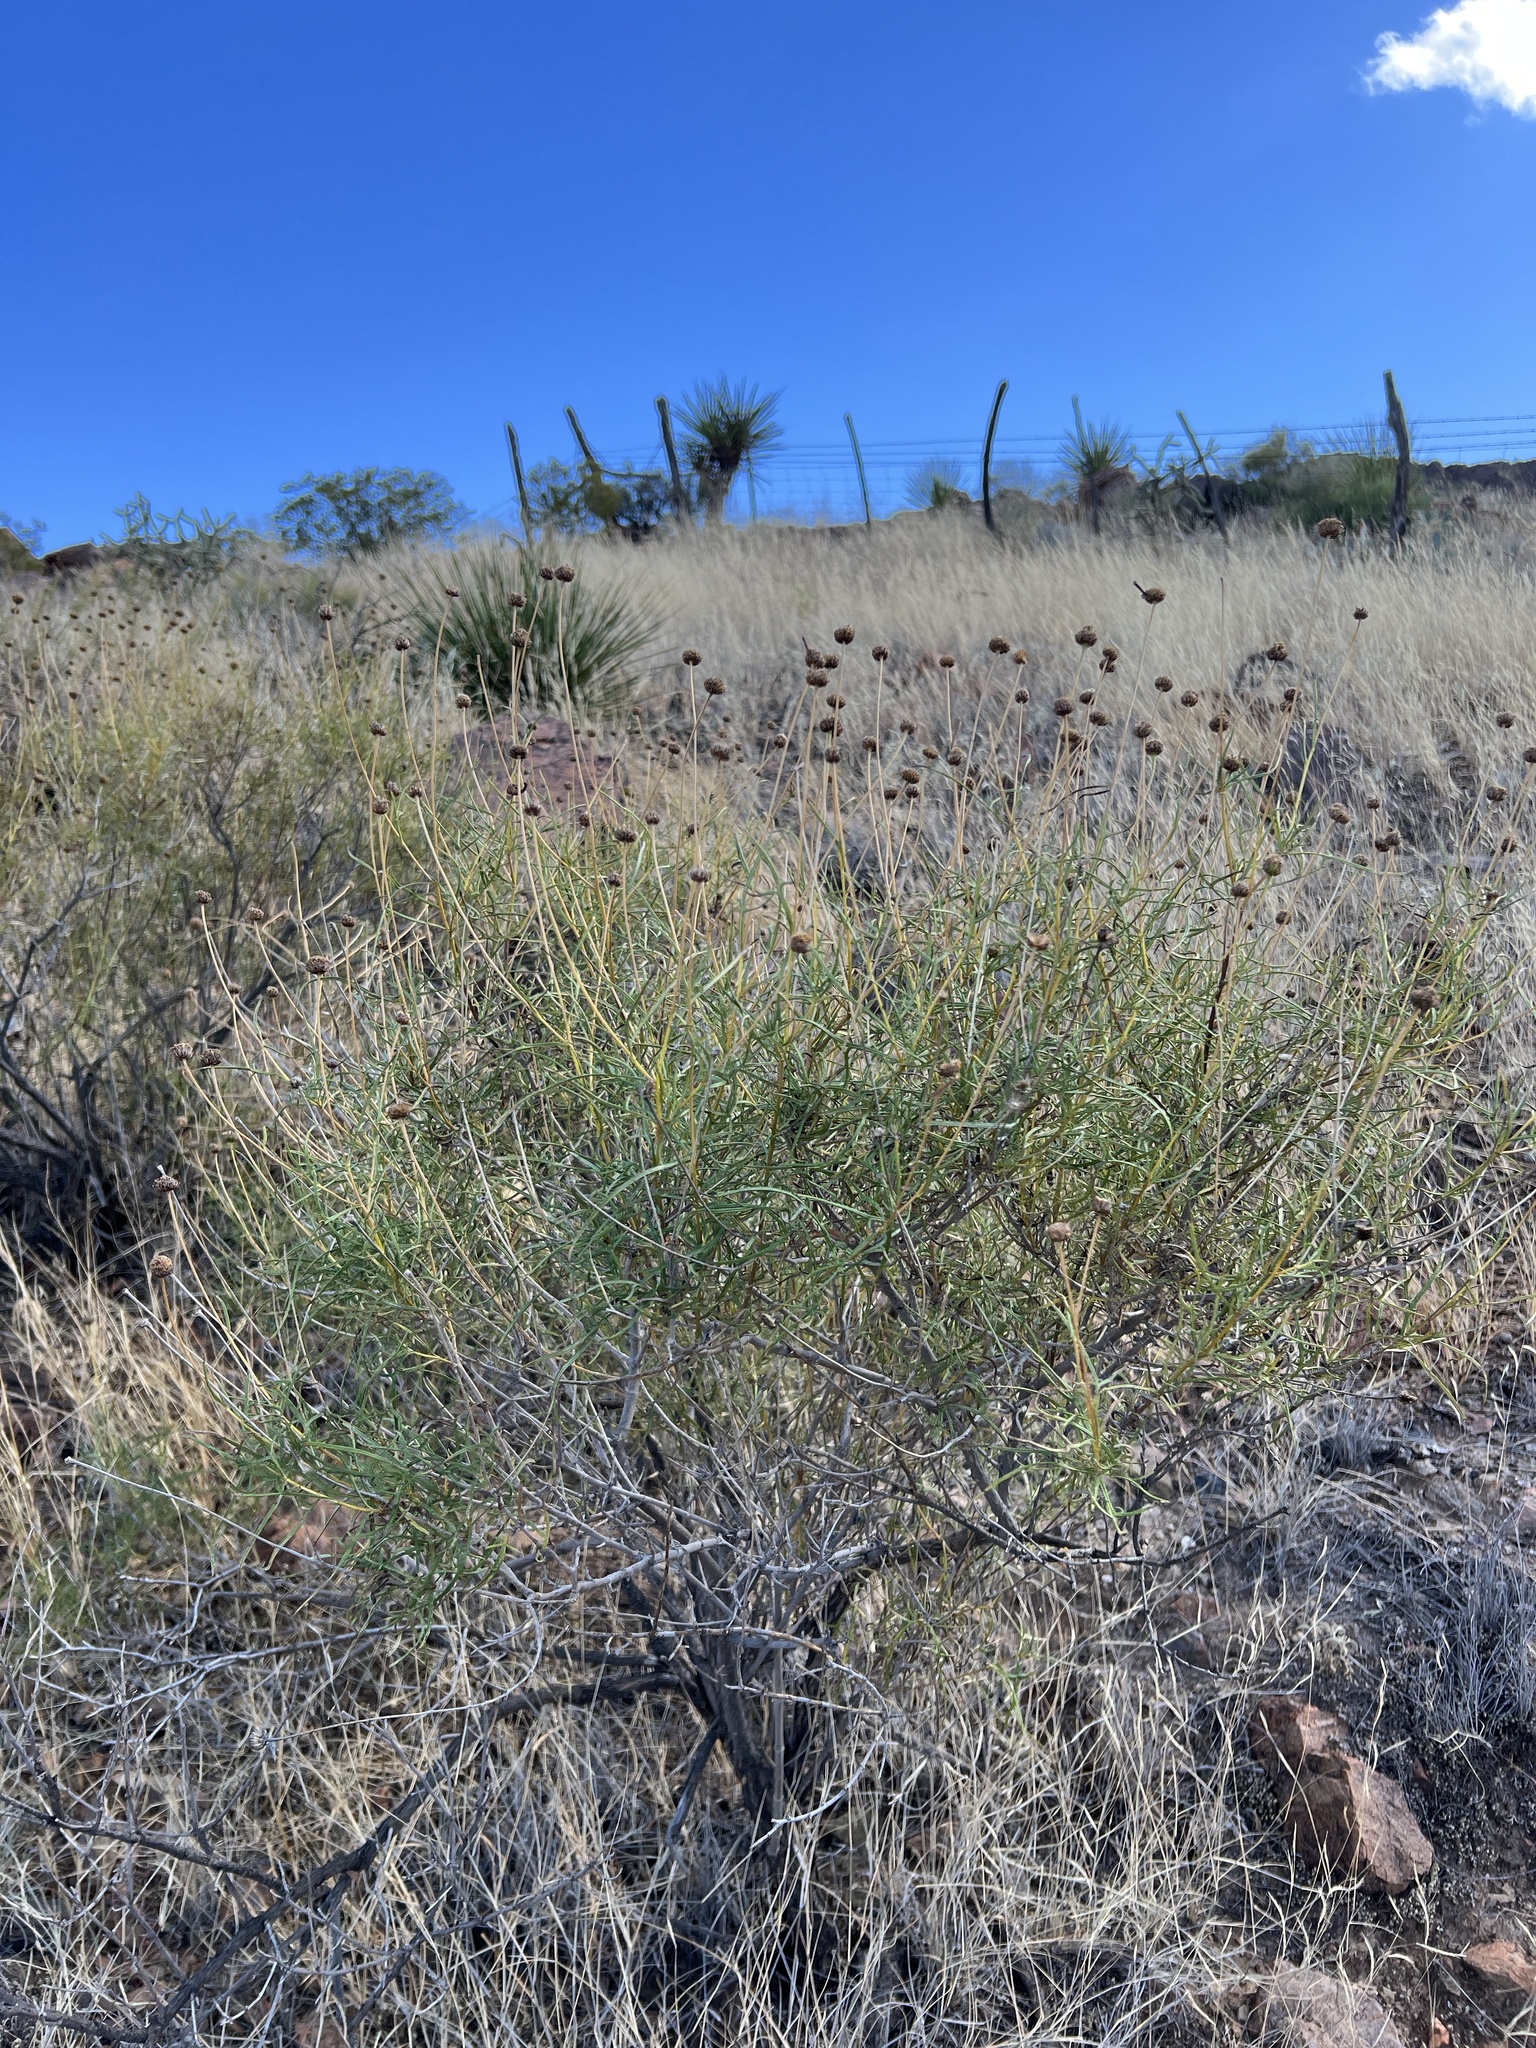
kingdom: Plantae
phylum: Tracheophyta
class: Magnoliopsida
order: Asterales
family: Asteraceae
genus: Sidneya
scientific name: Sidneya tenuifolia
